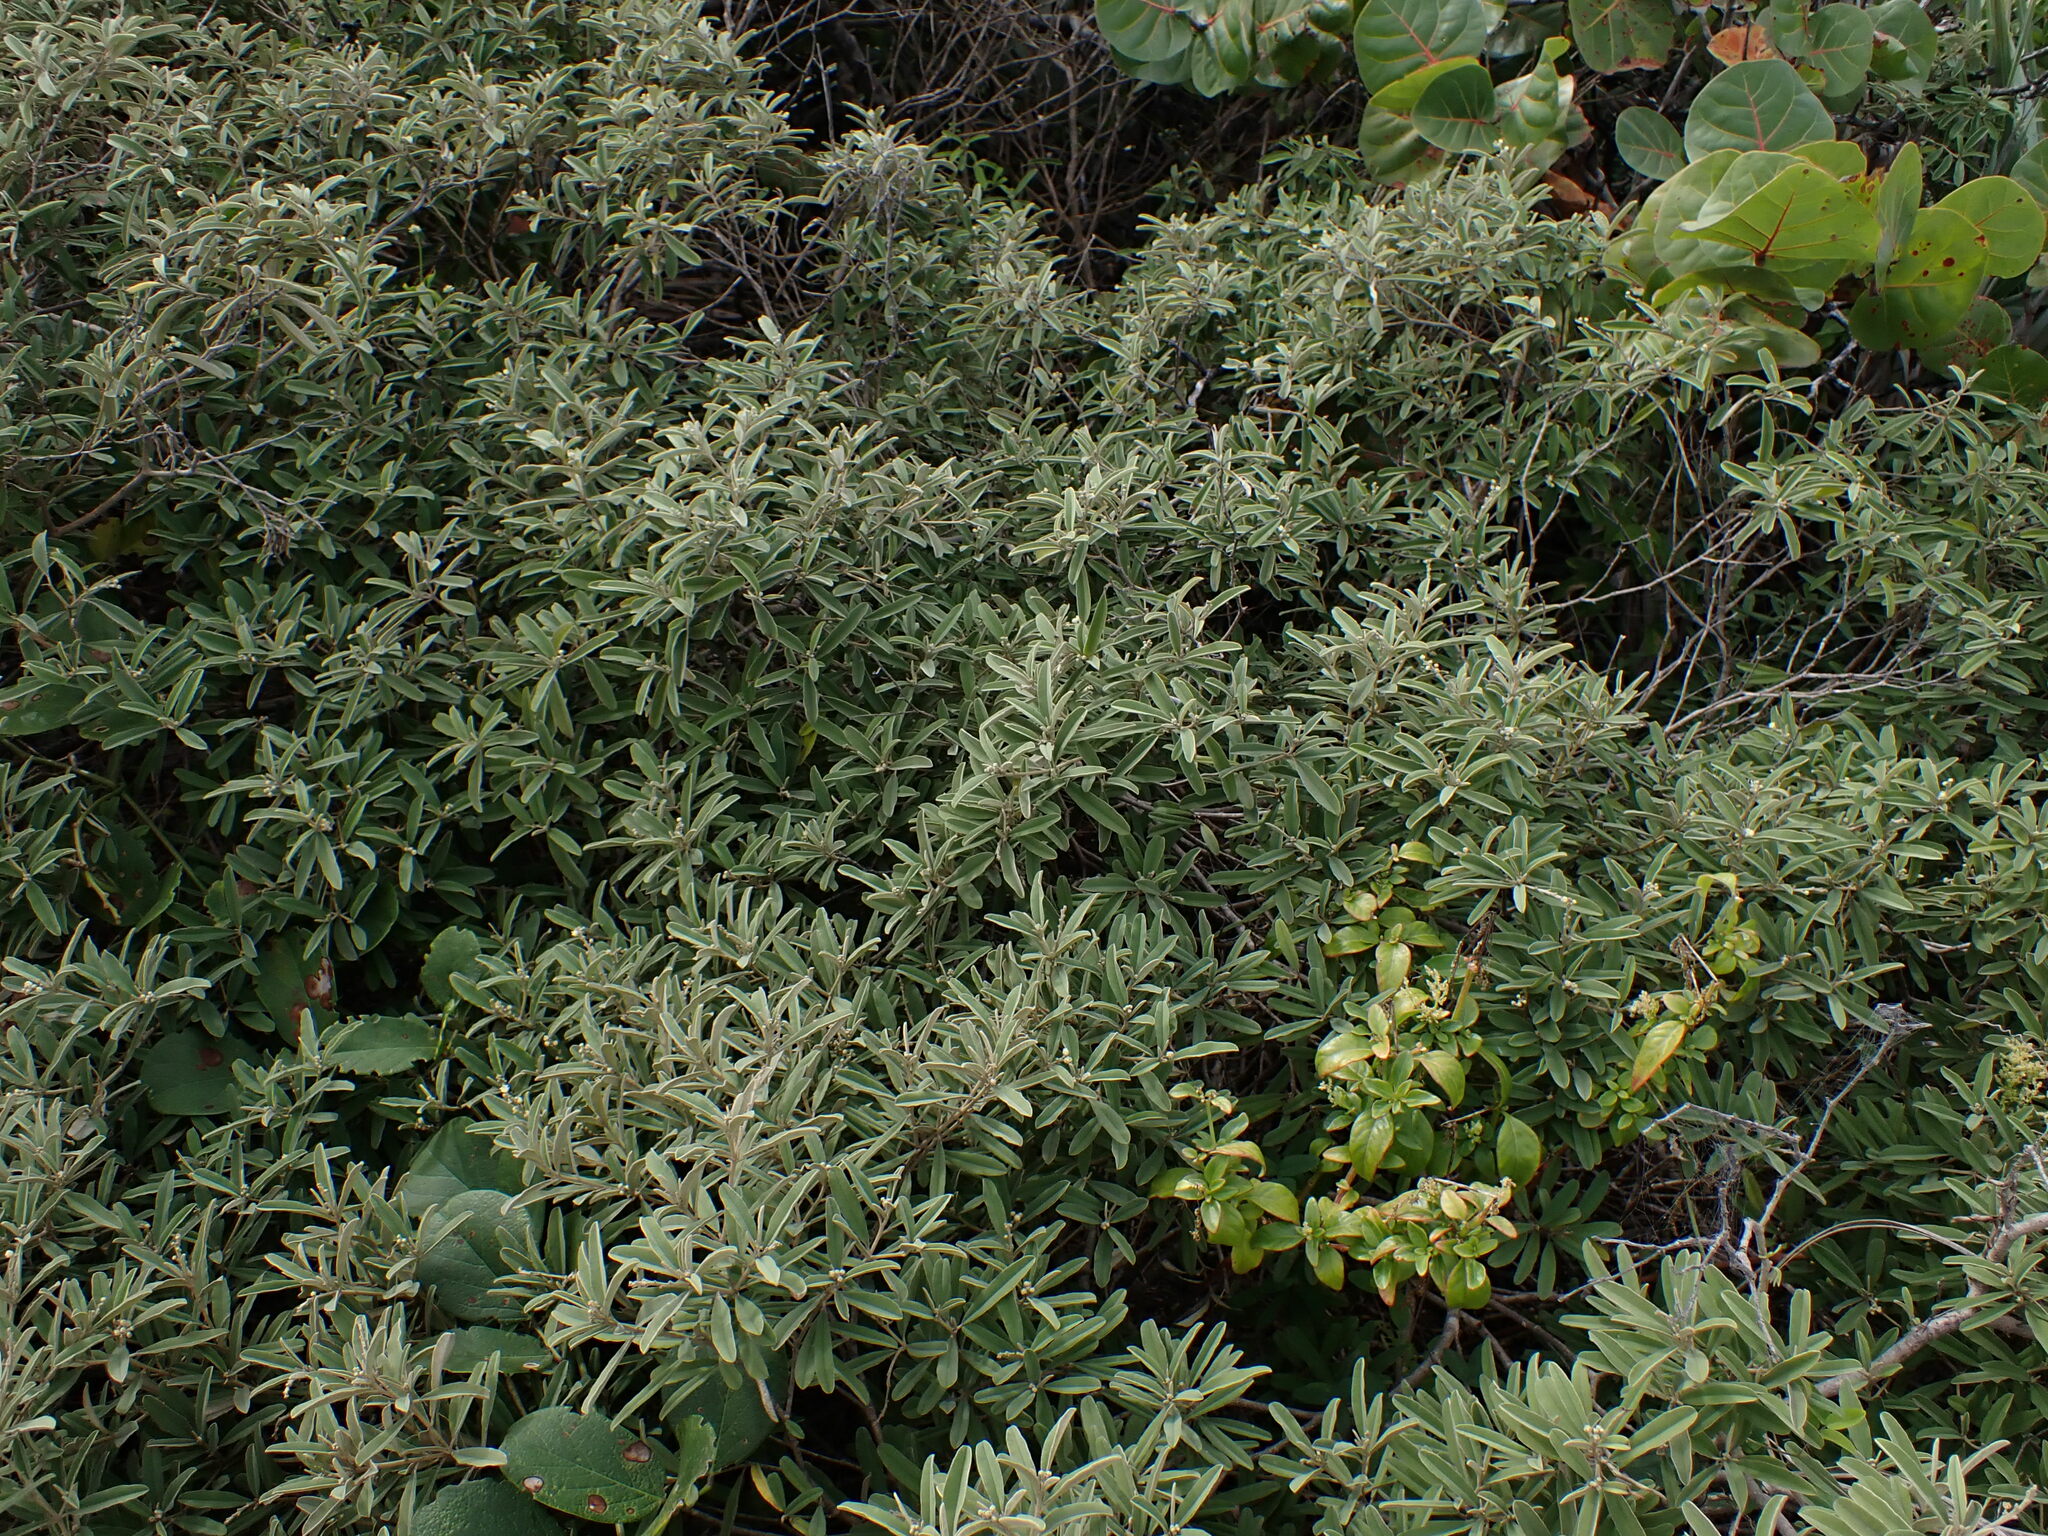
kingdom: Plantae
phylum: Tracheophyta
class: Magnoliopsida
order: Malpighiales
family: Euphorbiaceae
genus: Croton
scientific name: Croton linearis
